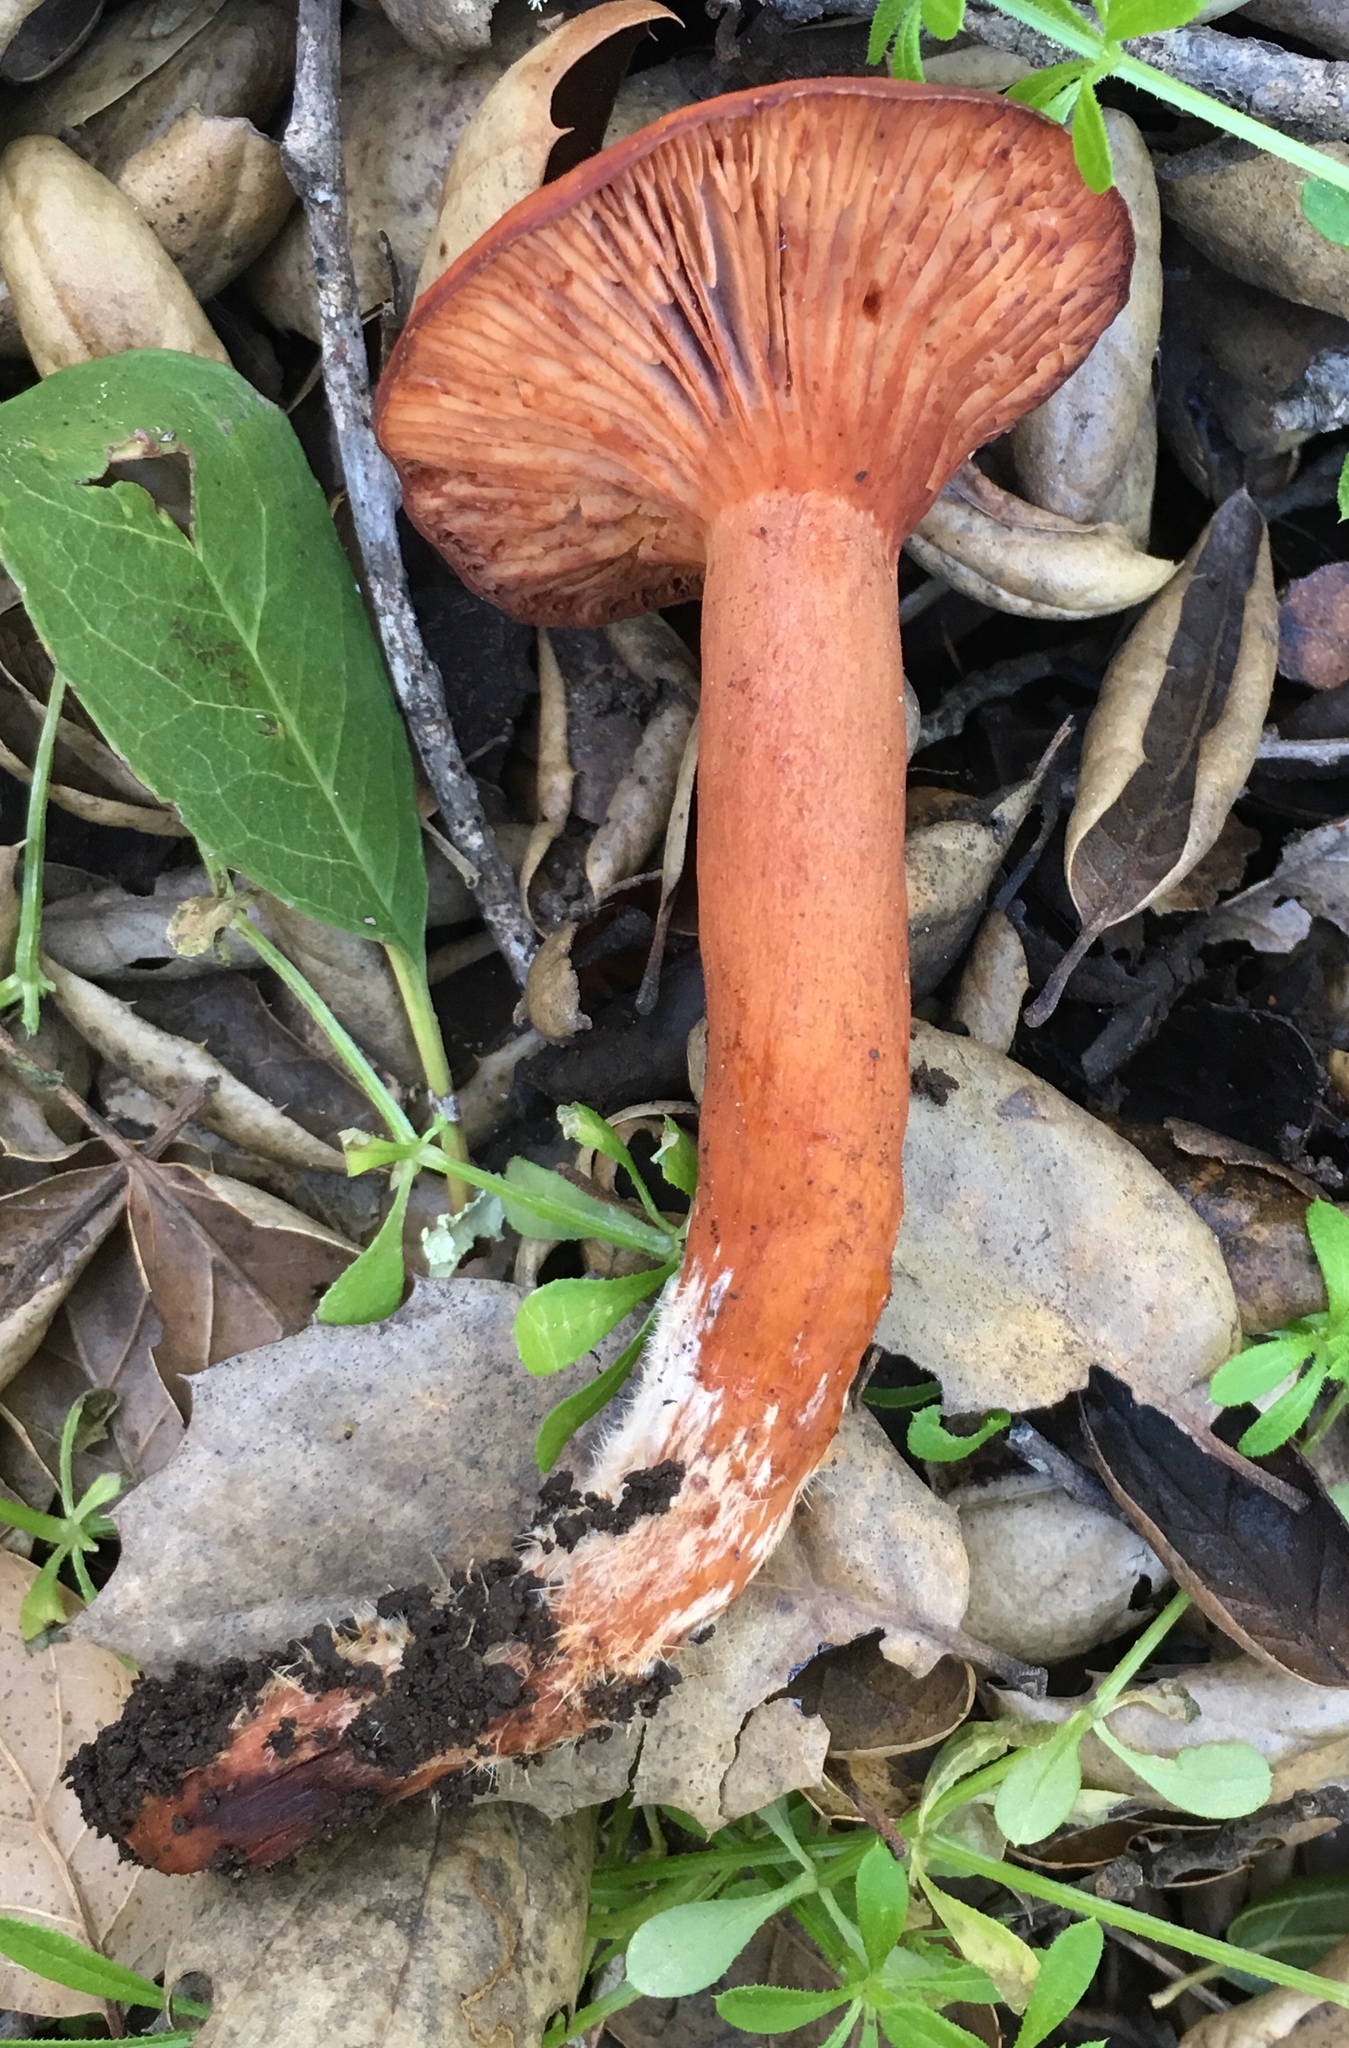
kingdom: Fungi
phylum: Basidiomycota
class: Agaricomycetes
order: Russulales
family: Russulaceae
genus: Lactarius
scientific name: Lactarius rufulus
